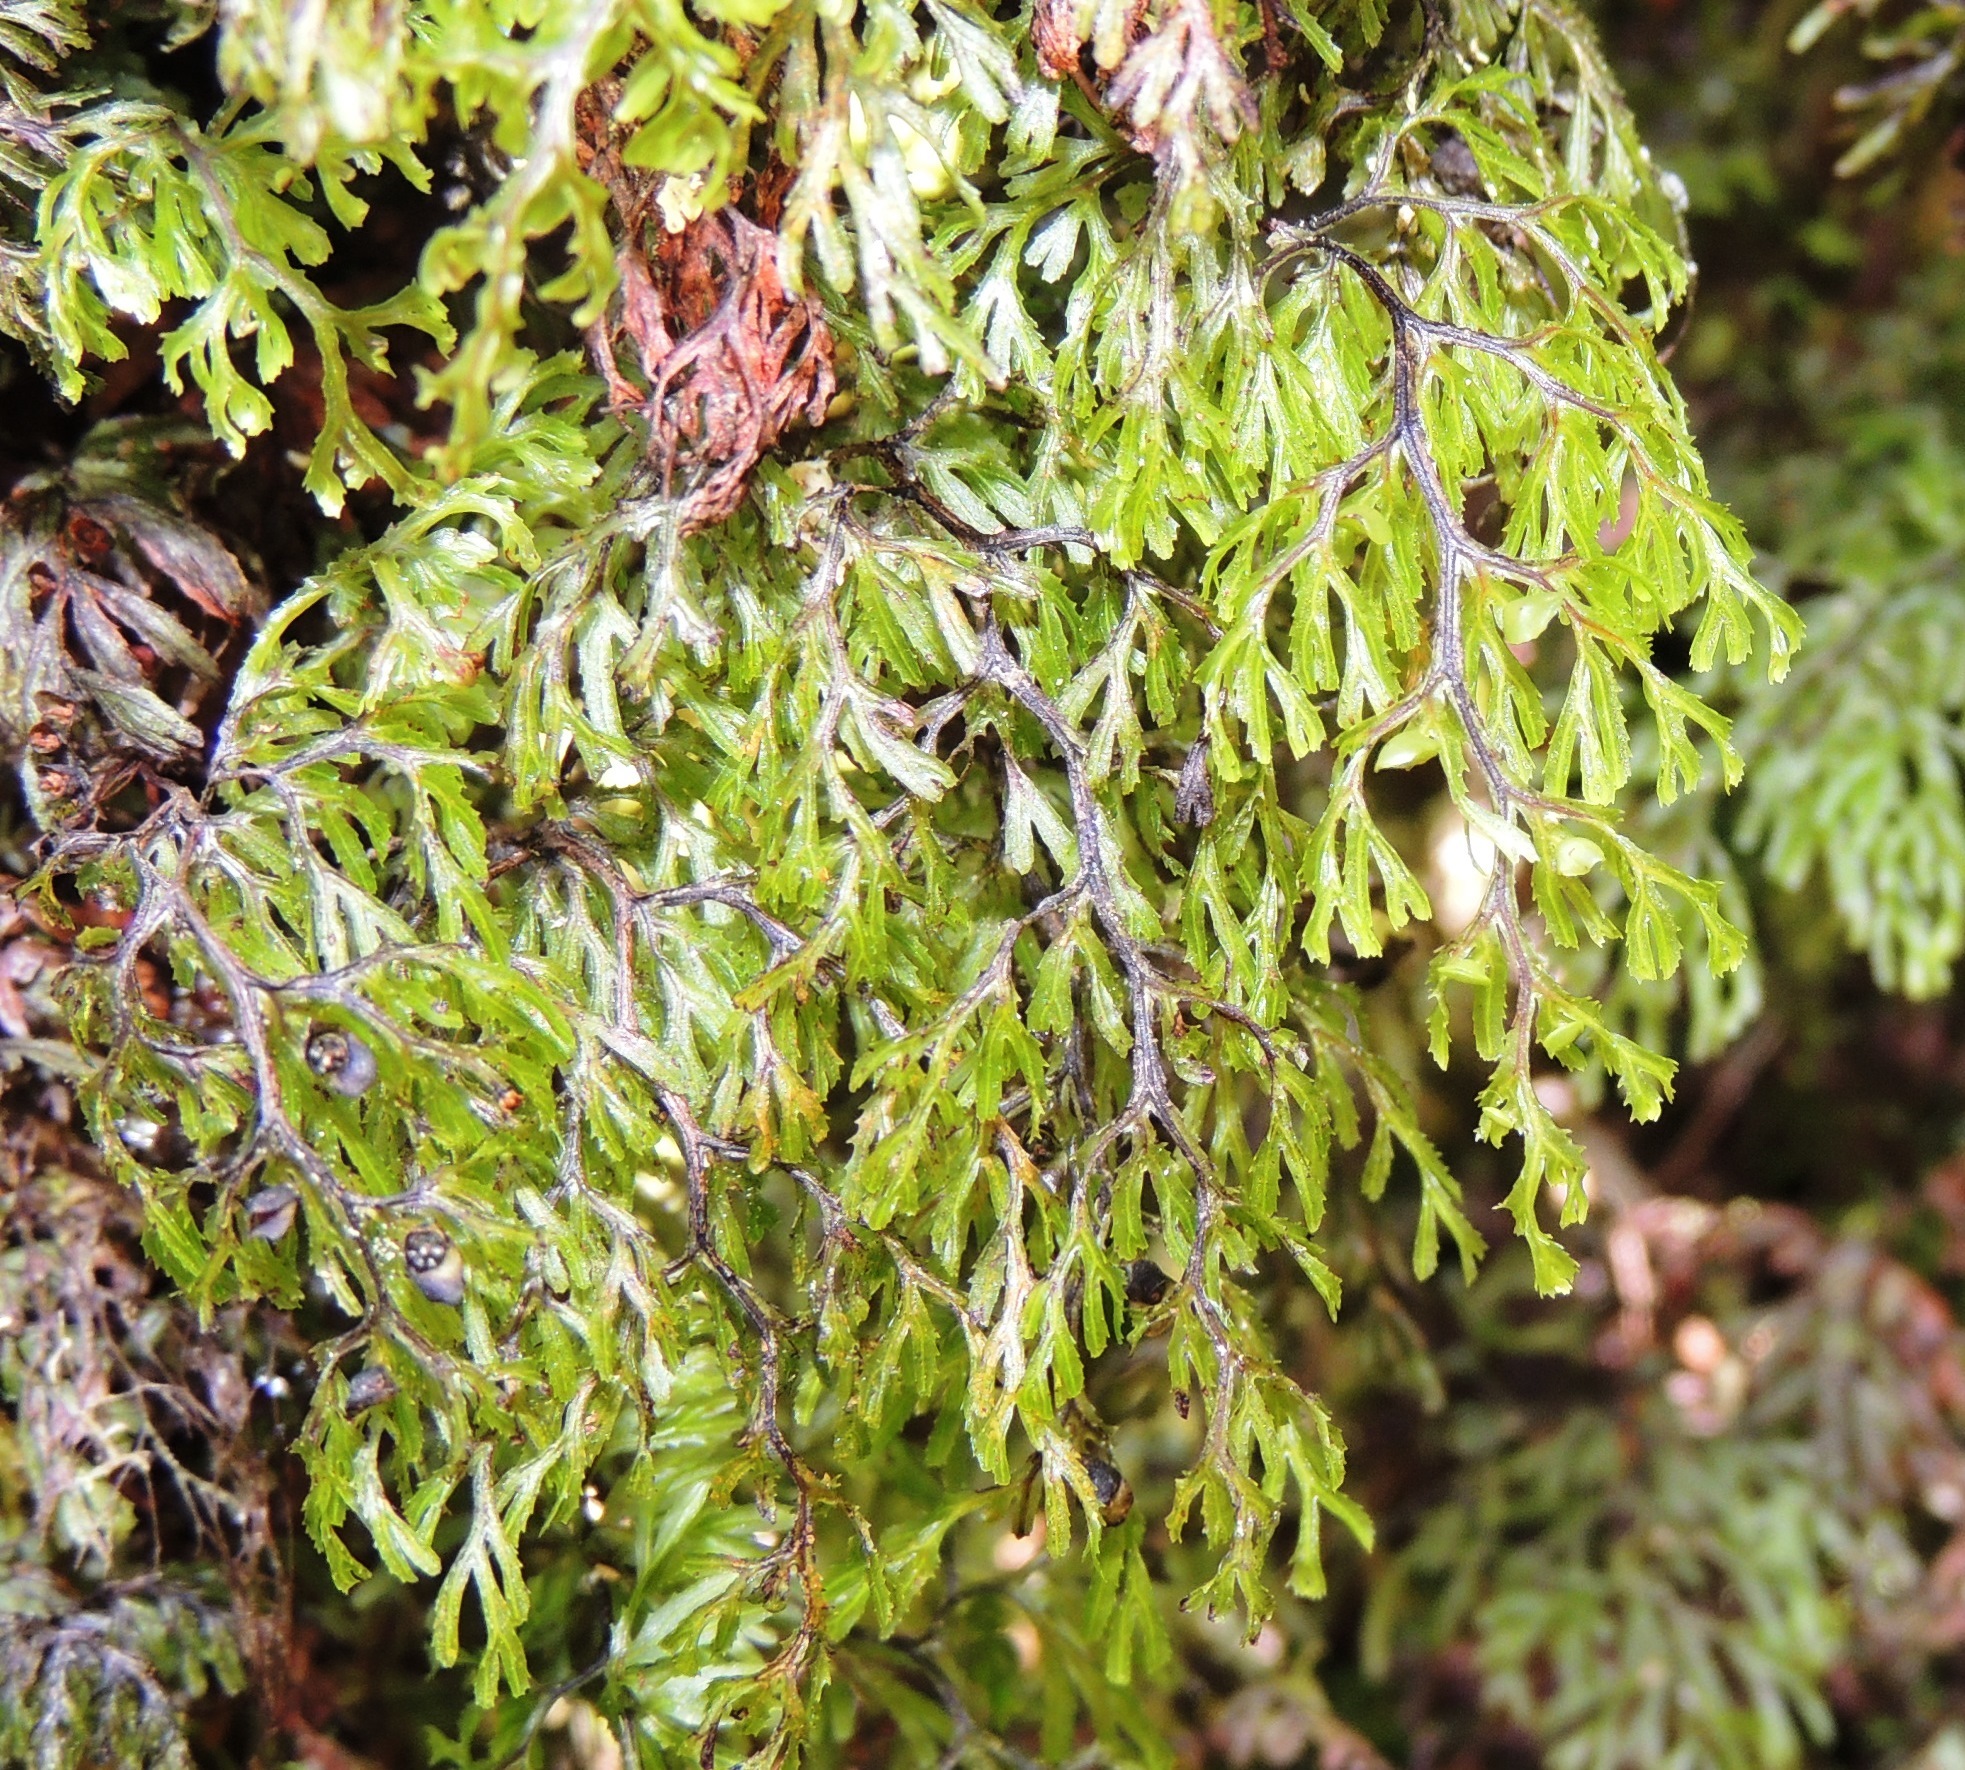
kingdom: Plantae
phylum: Tracheophyta
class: Polypodiopsida
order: Hymenophyllales
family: Hymenophyllaceae
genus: Hymenophyllum
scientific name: Hymenophyllum multifidum
